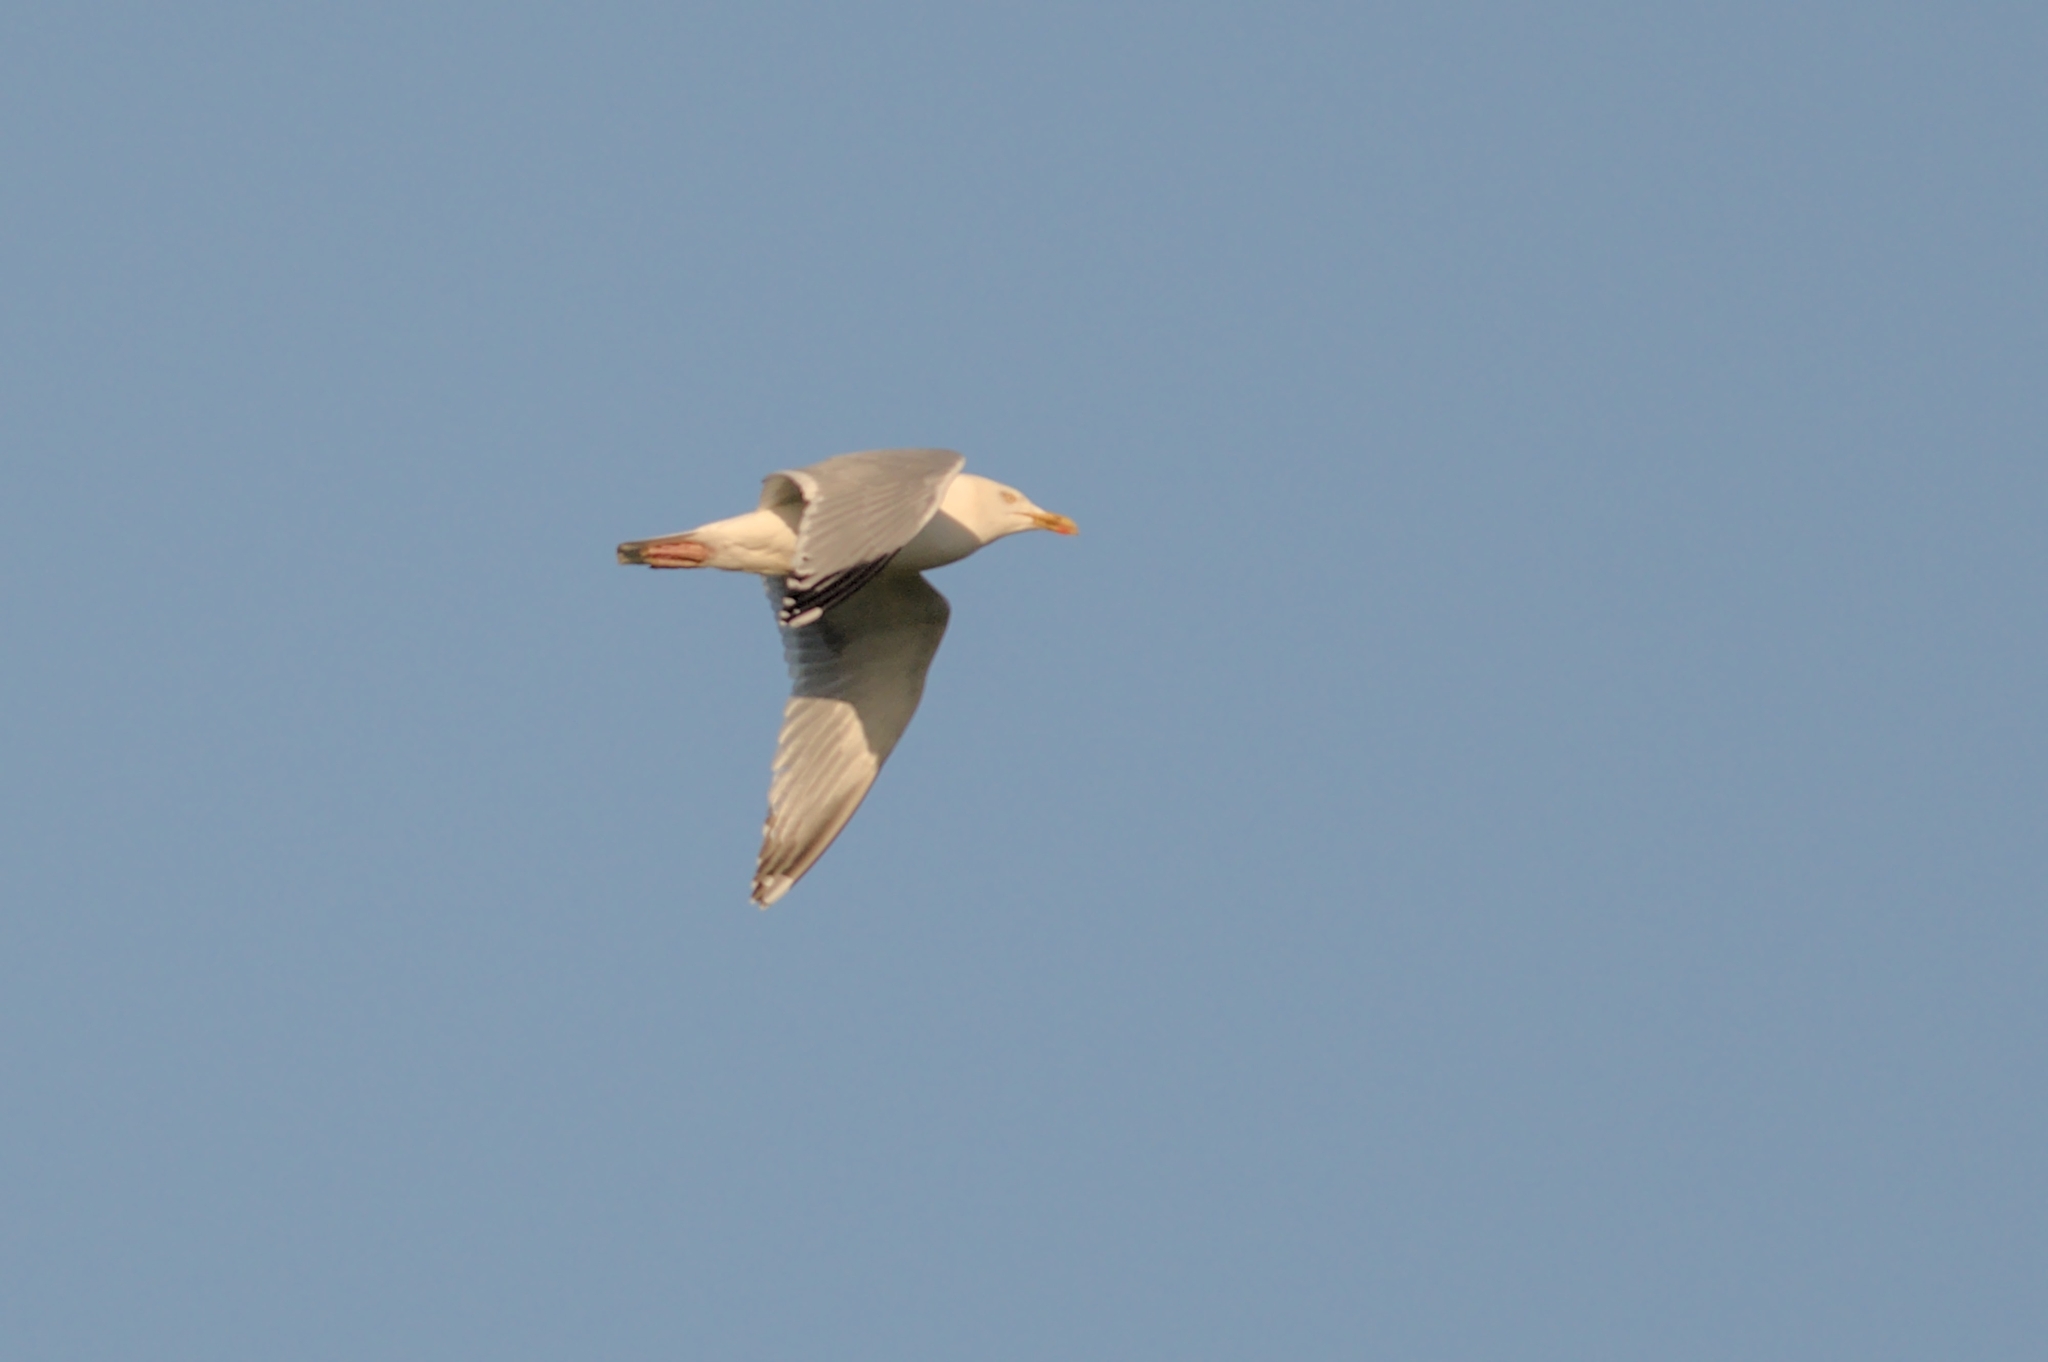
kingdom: Animalia
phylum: Chordata
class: Aves
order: Charadriiformes
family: Laridae
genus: Larus
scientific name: Larus argentatus
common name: Herring gull
